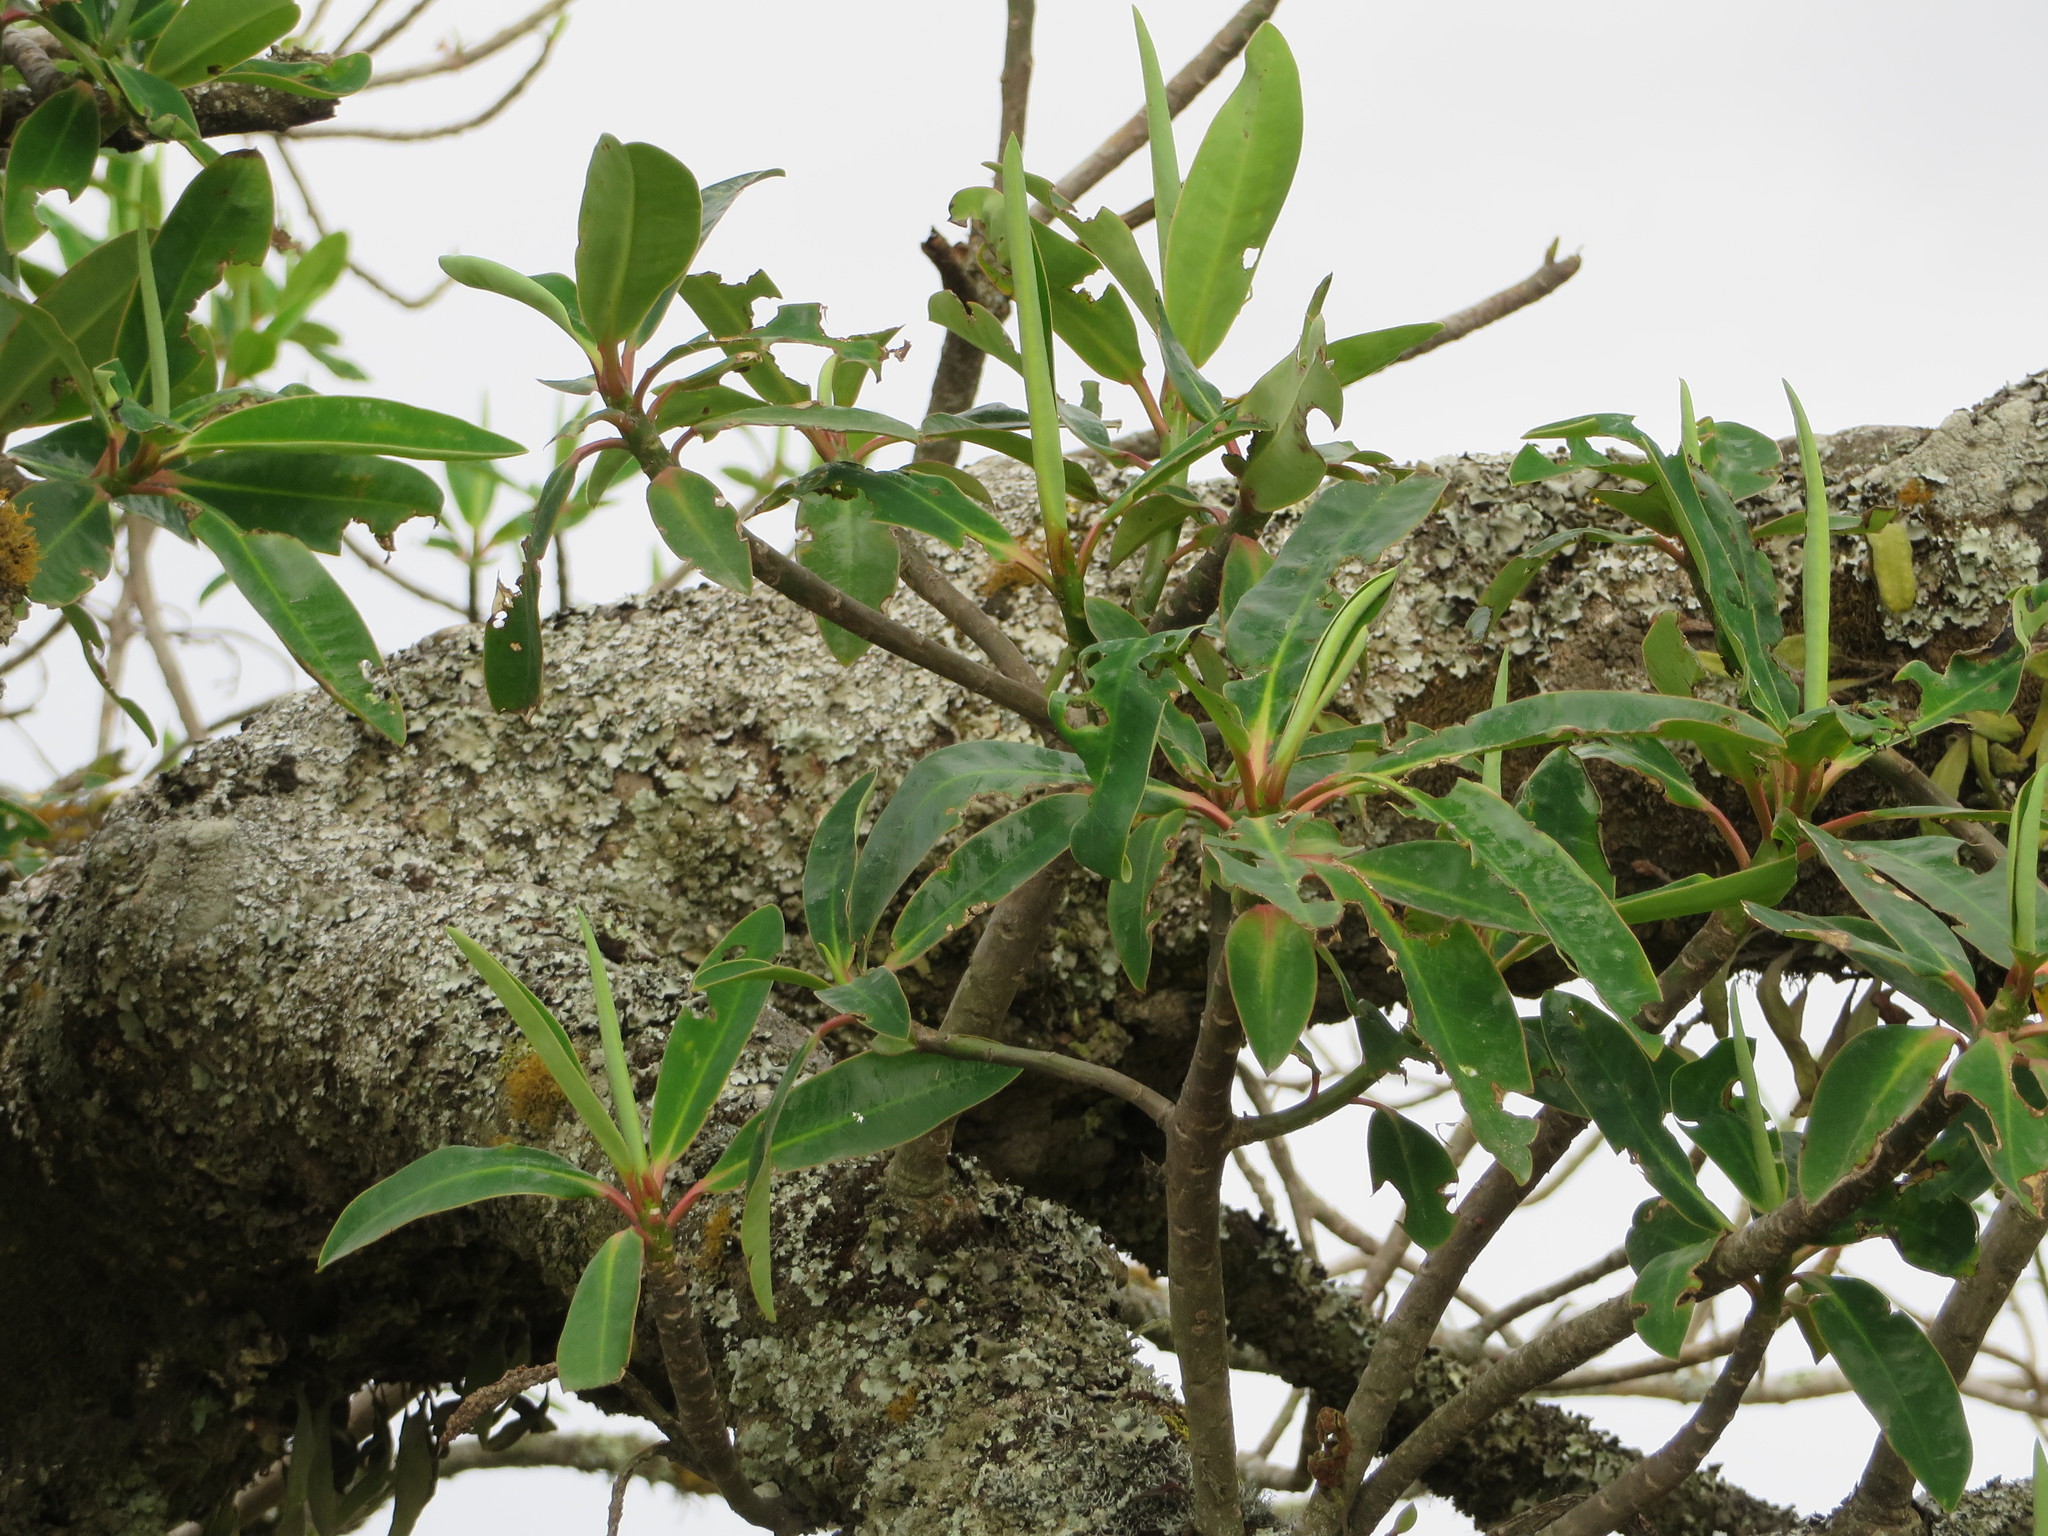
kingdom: Plantae
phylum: Tracheophyta
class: Magnoliopsida
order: Malpighiales
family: Euphorbiaceae
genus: Euphorbia
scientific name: Euphorbia laurifolia
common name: Lechero
